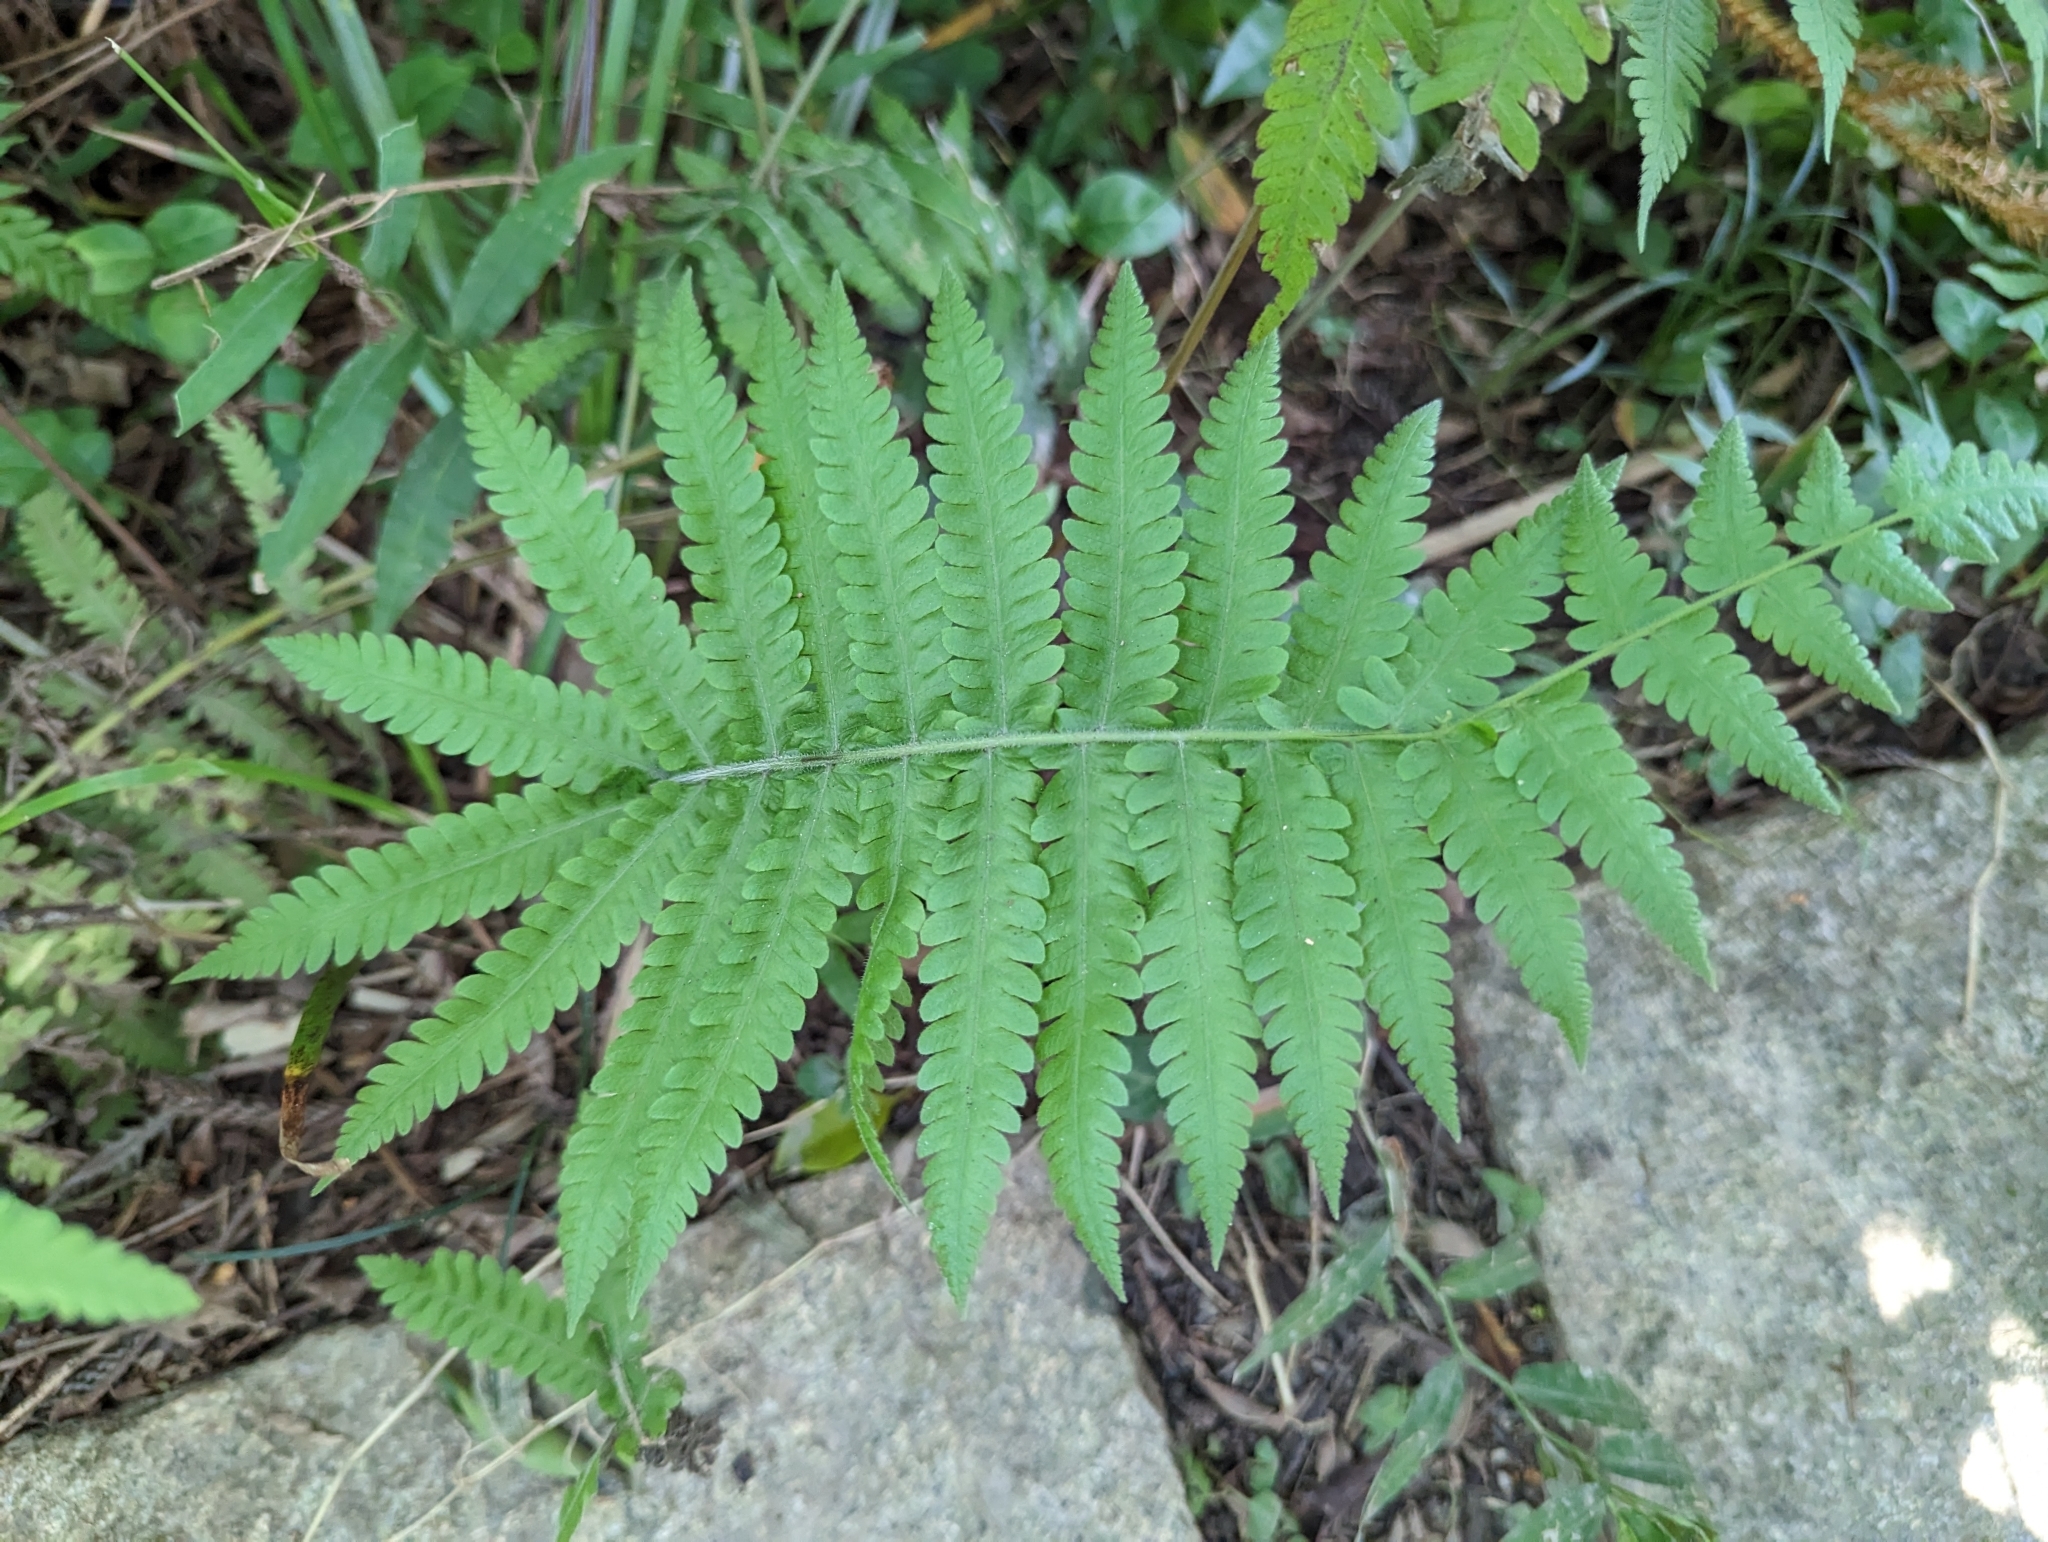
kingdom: Plantae
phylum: Tracheophyta
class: Polypodiopsida
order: Polypodiales
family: Thelypteridaceae
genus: Christella
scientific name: Christella parasitica
